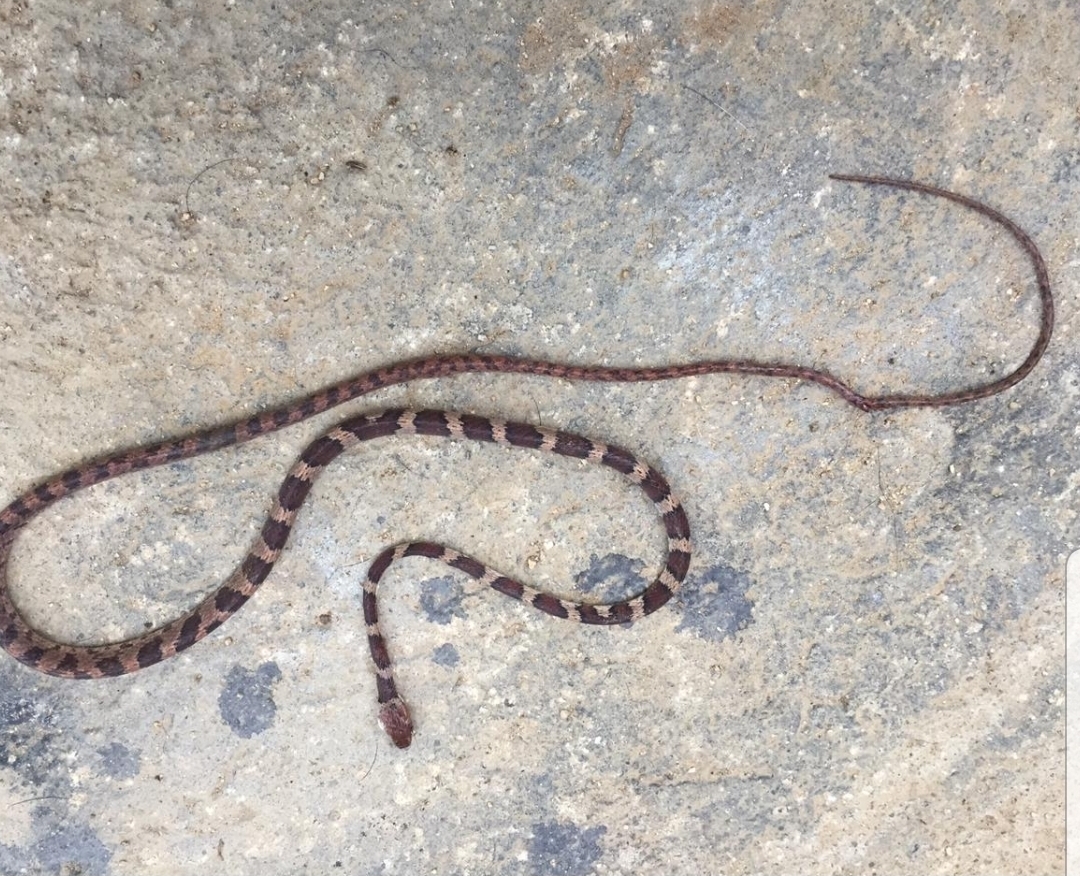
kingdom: Animalia
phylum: Chordata
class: Squamata
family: Colubridae
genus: Imantodes
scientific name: Imantodes gemmistratus
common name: Central american tree snake
